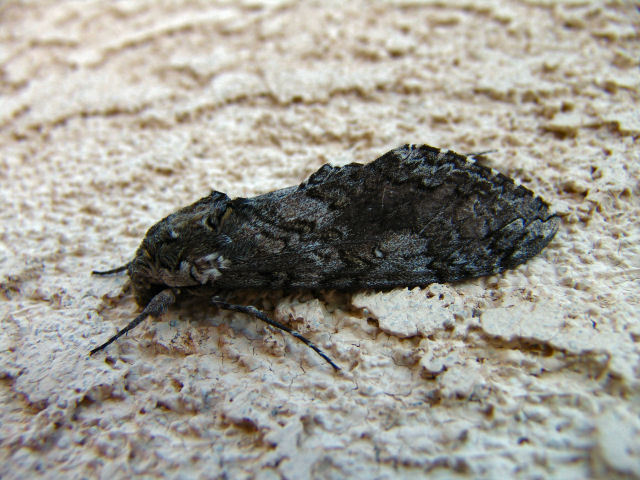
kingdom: Animalia
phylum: Arthropoda
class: Insecta
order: Lepidoptera
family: Sphingidae
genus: Manduca
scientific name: Manduca sexta
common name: Carolina sphinx
